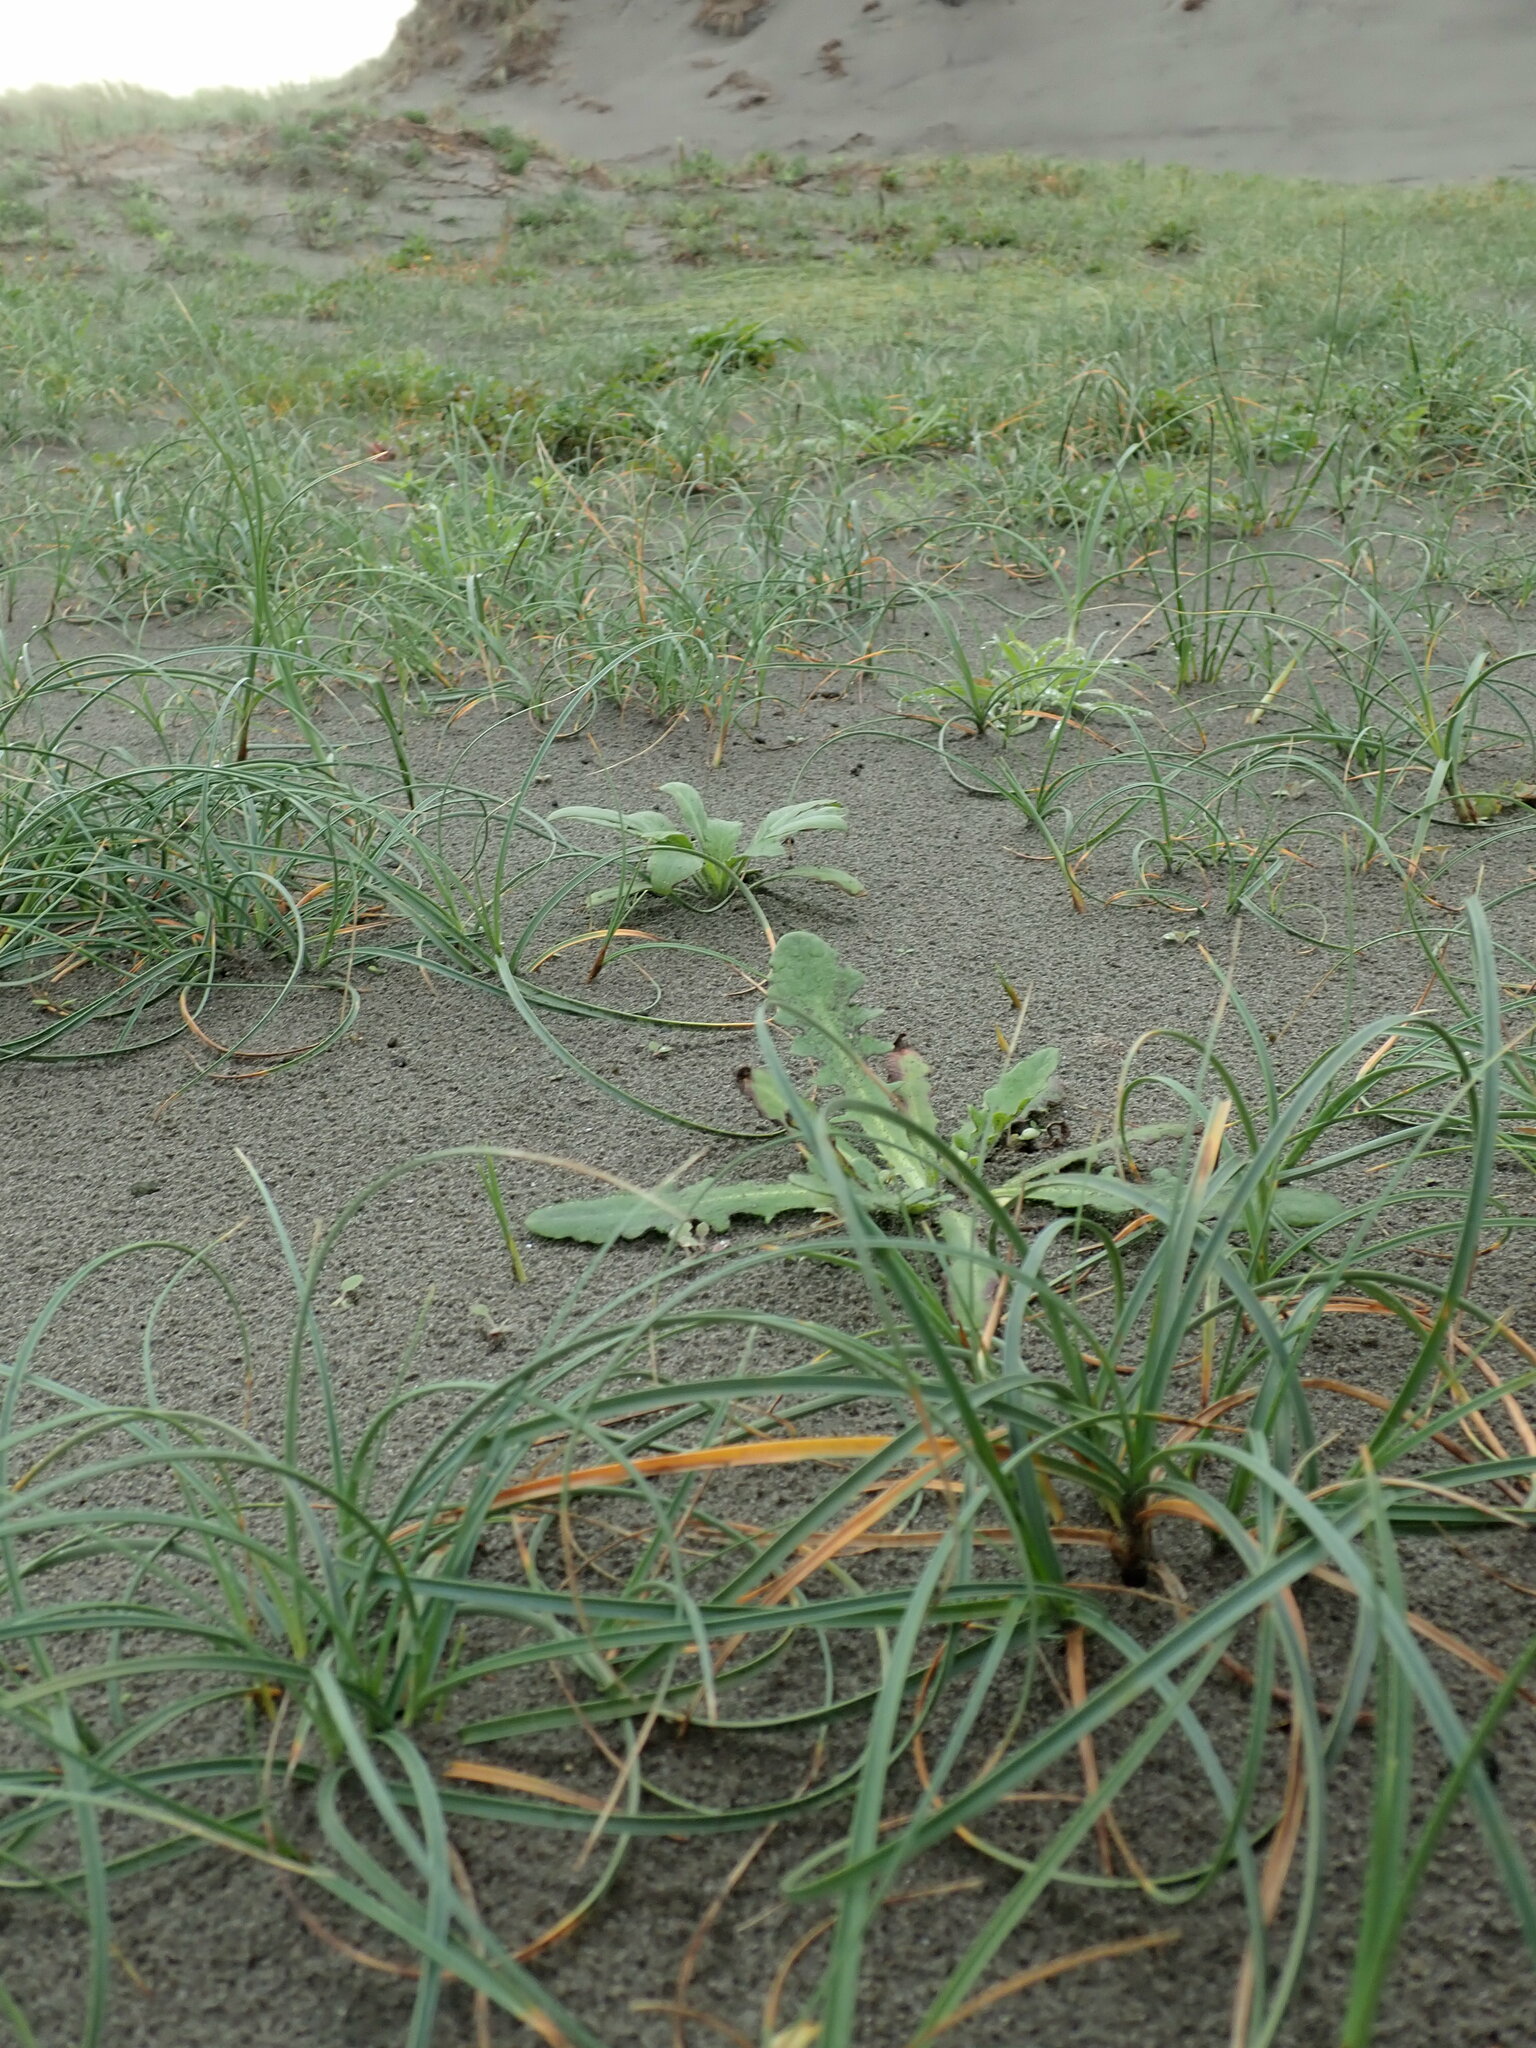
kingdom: Plantae
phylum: Tracheophyta
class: Liliopsida
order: Poales
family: Cyperaceae
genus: Carex
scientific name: Carex pumila
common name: Dwarf sedge
